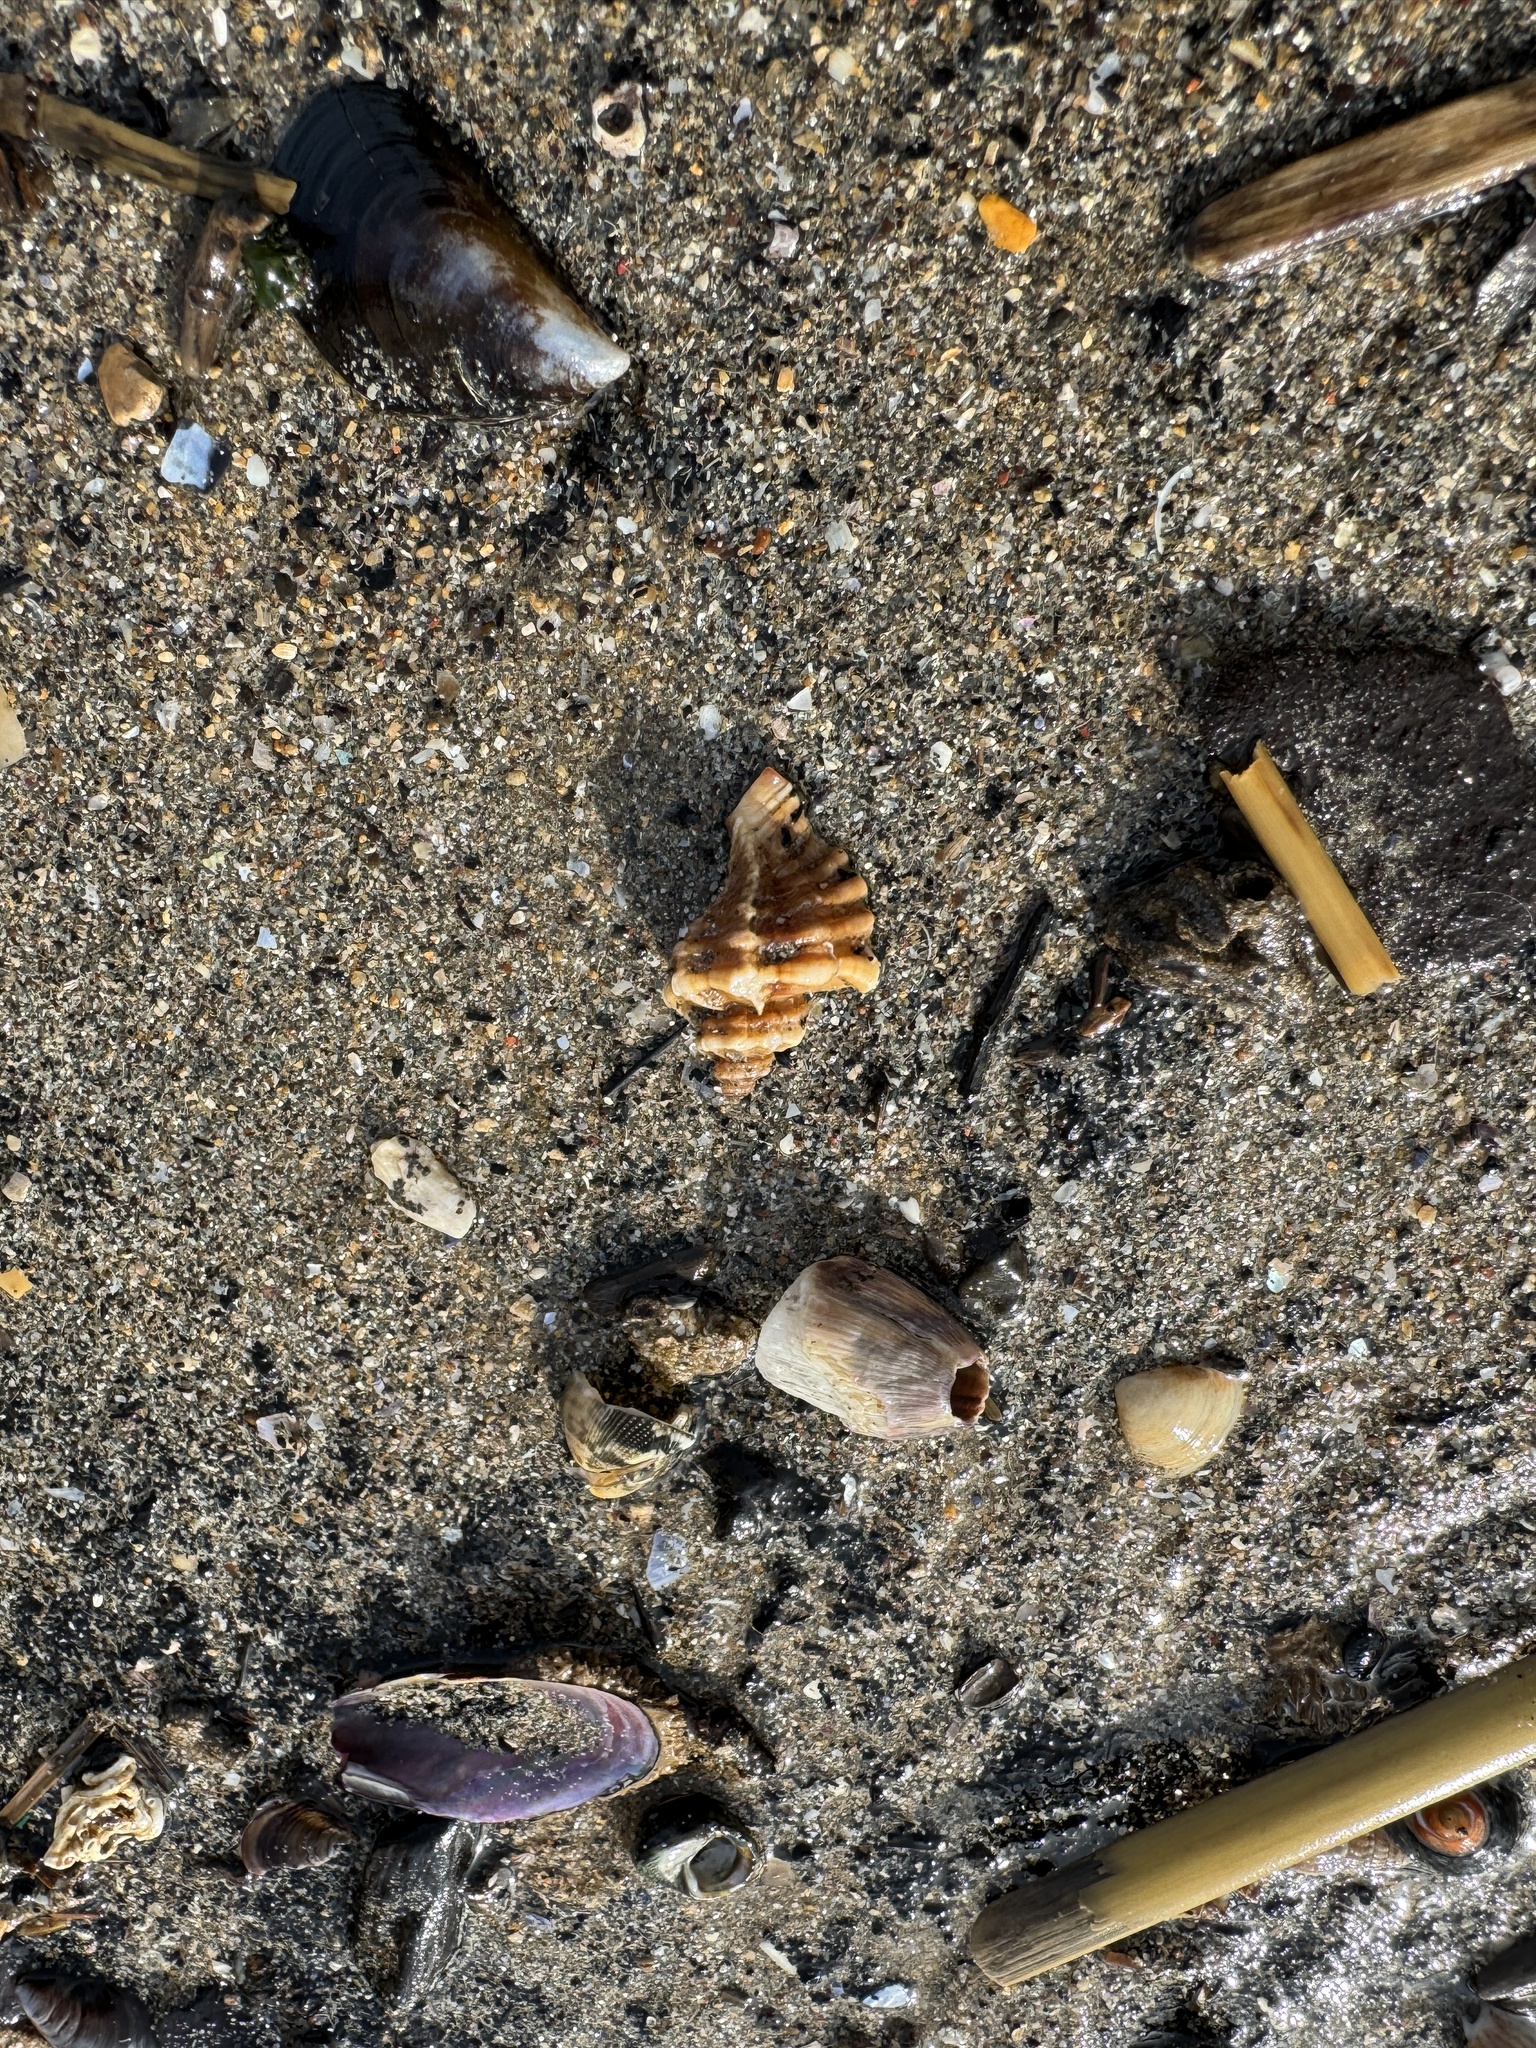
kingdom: Animalia
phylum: Mollusca
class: Gastropoda
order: Neogastropoda
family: Muricidae
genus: Ocenebra
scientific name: Ocenebra erinaceus
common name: European sting winkle
